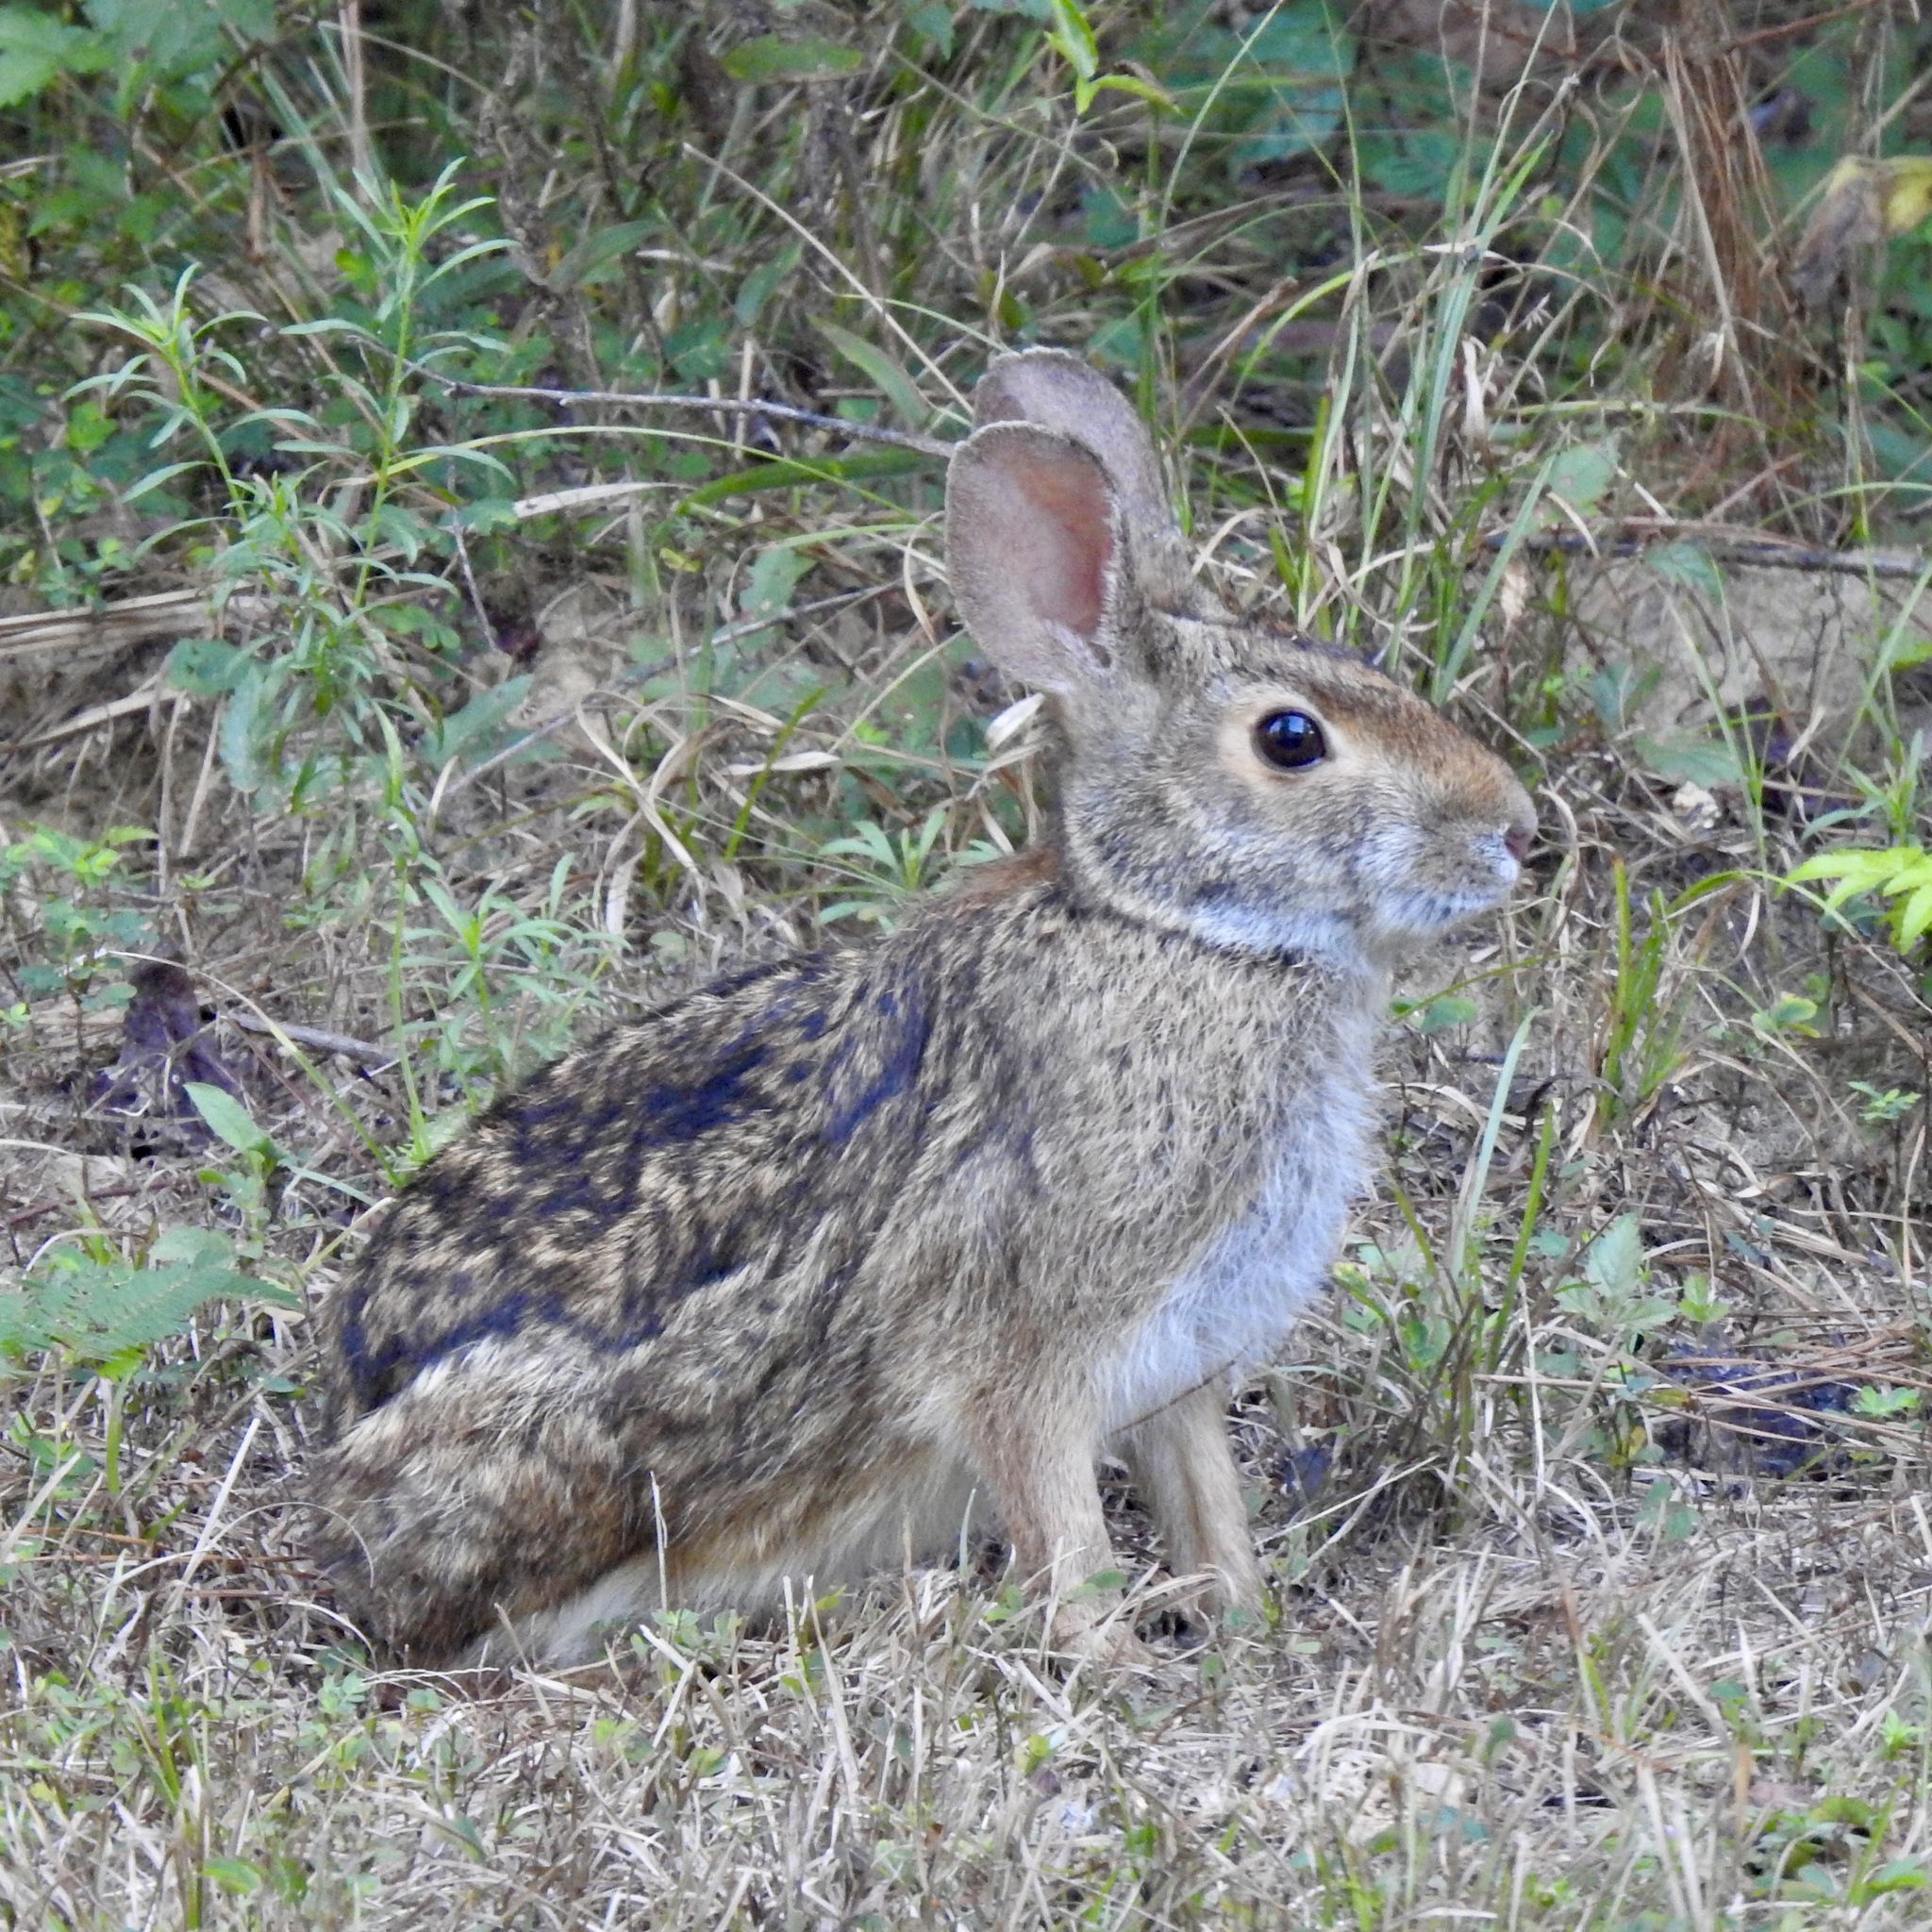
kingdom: Animalia
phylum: Chordata
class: Mammalia
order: Lagomorpha
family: Leporidae
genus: Sylvilagus
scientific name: Sylvilagus aquaticus
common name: Swamp rabbit
